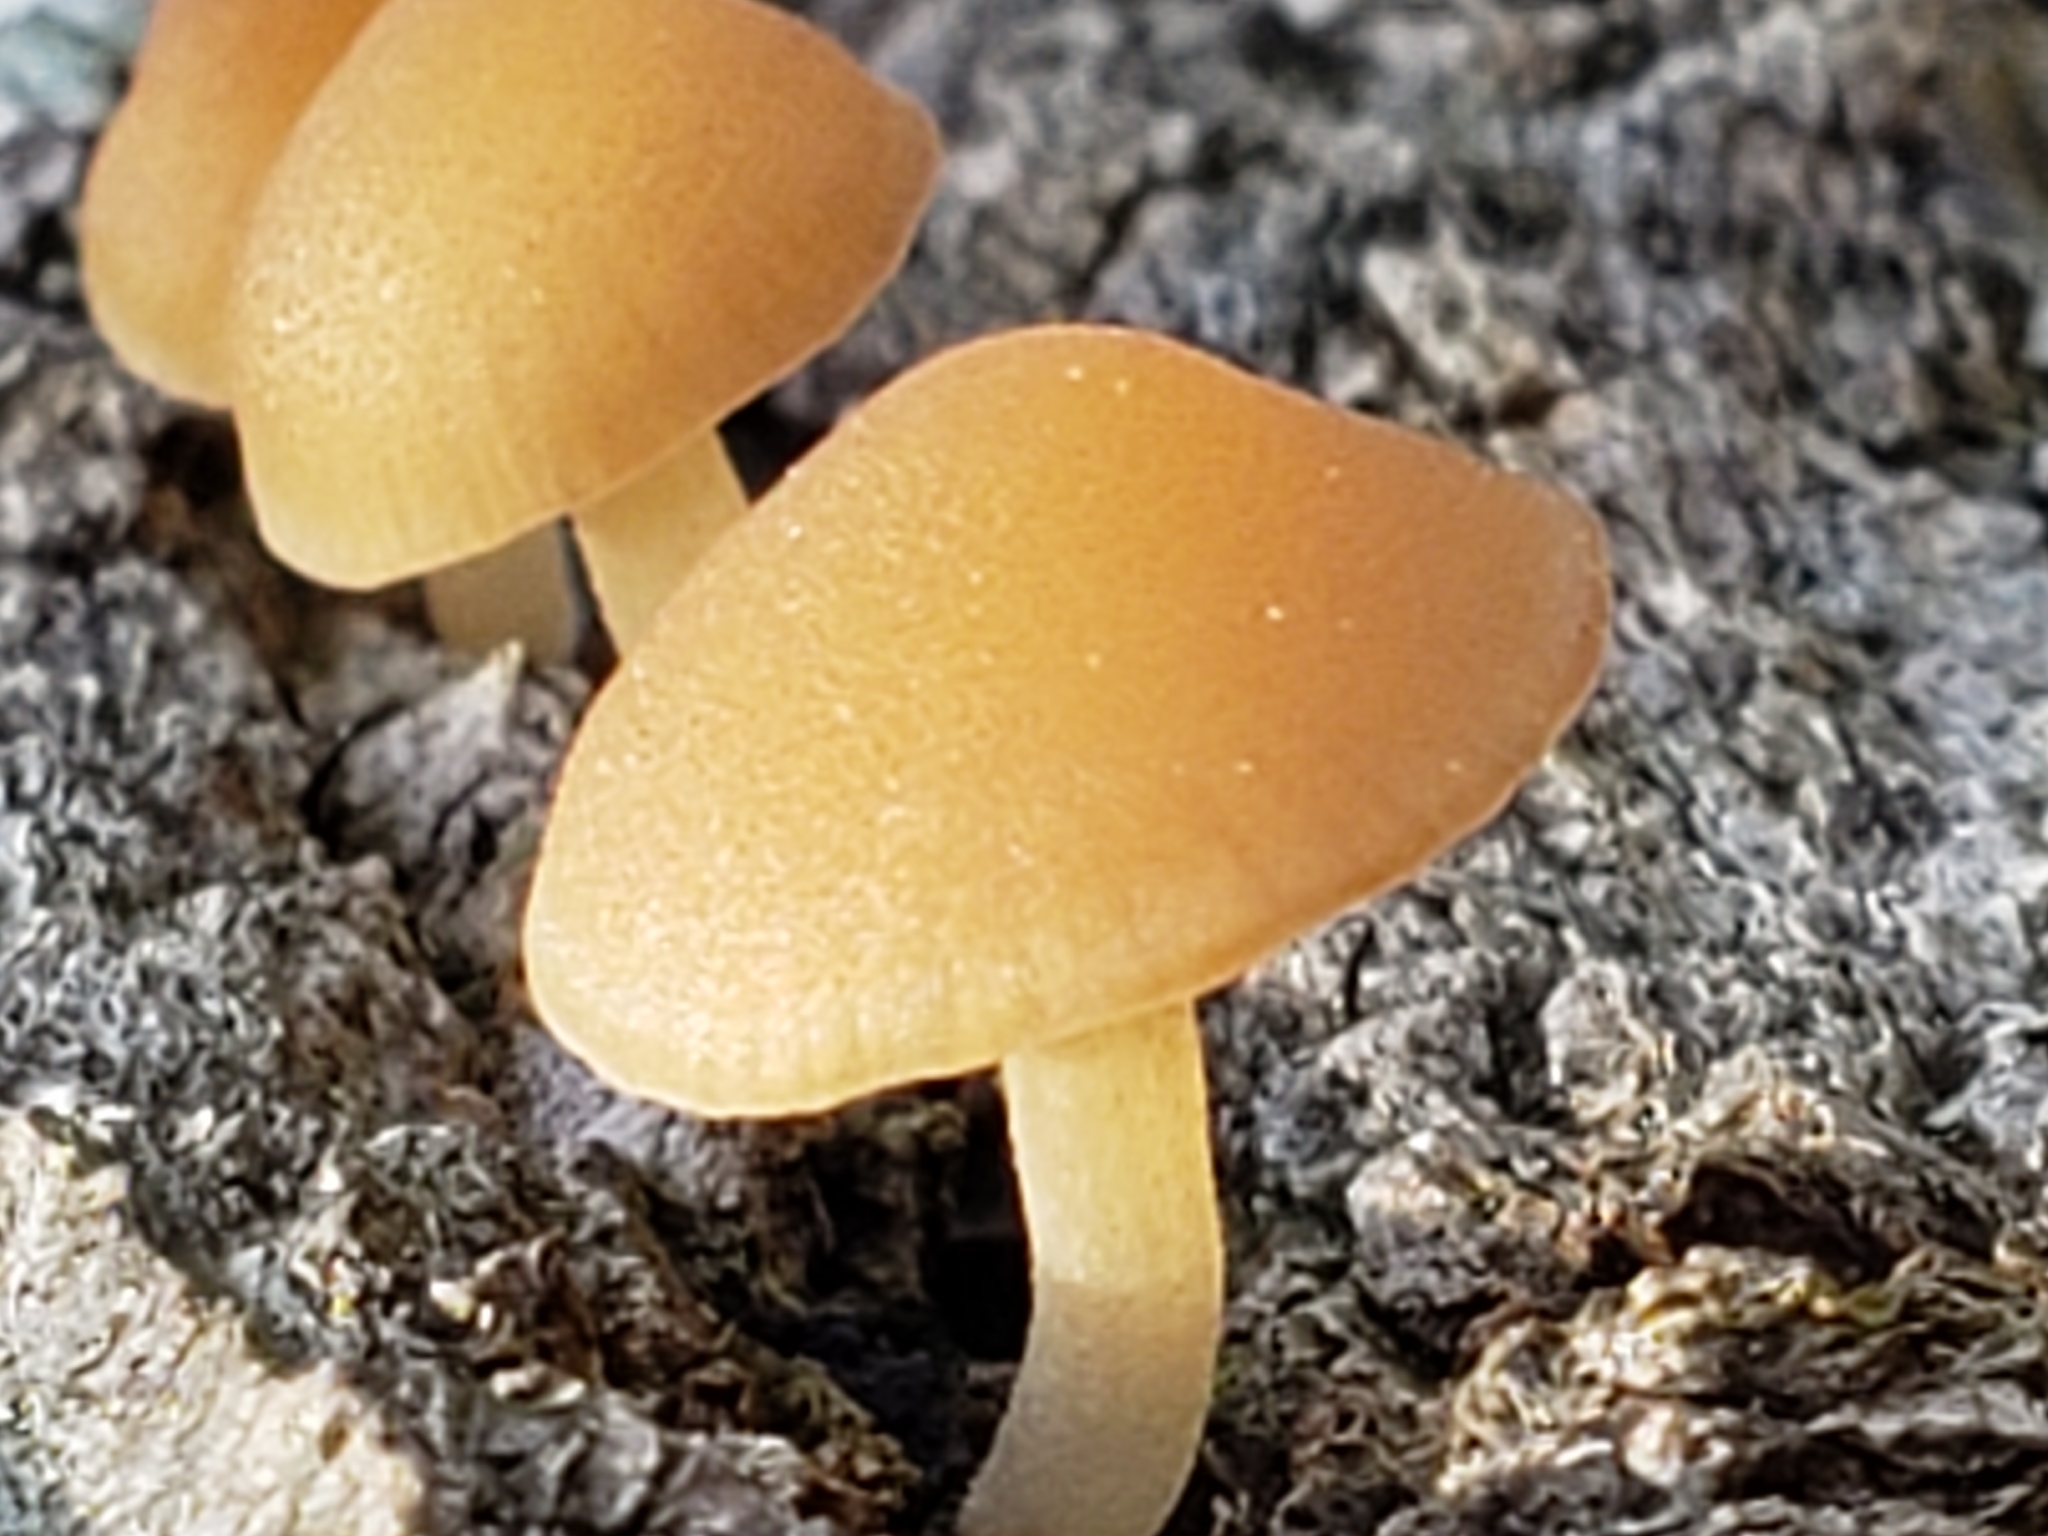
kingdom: Fungi
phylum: Basidiomycota
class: Agaricomycetes
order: Agaricales
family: Callistosporiaceae
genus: Callistosporium
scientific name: Callistosporium pseudofelleum
